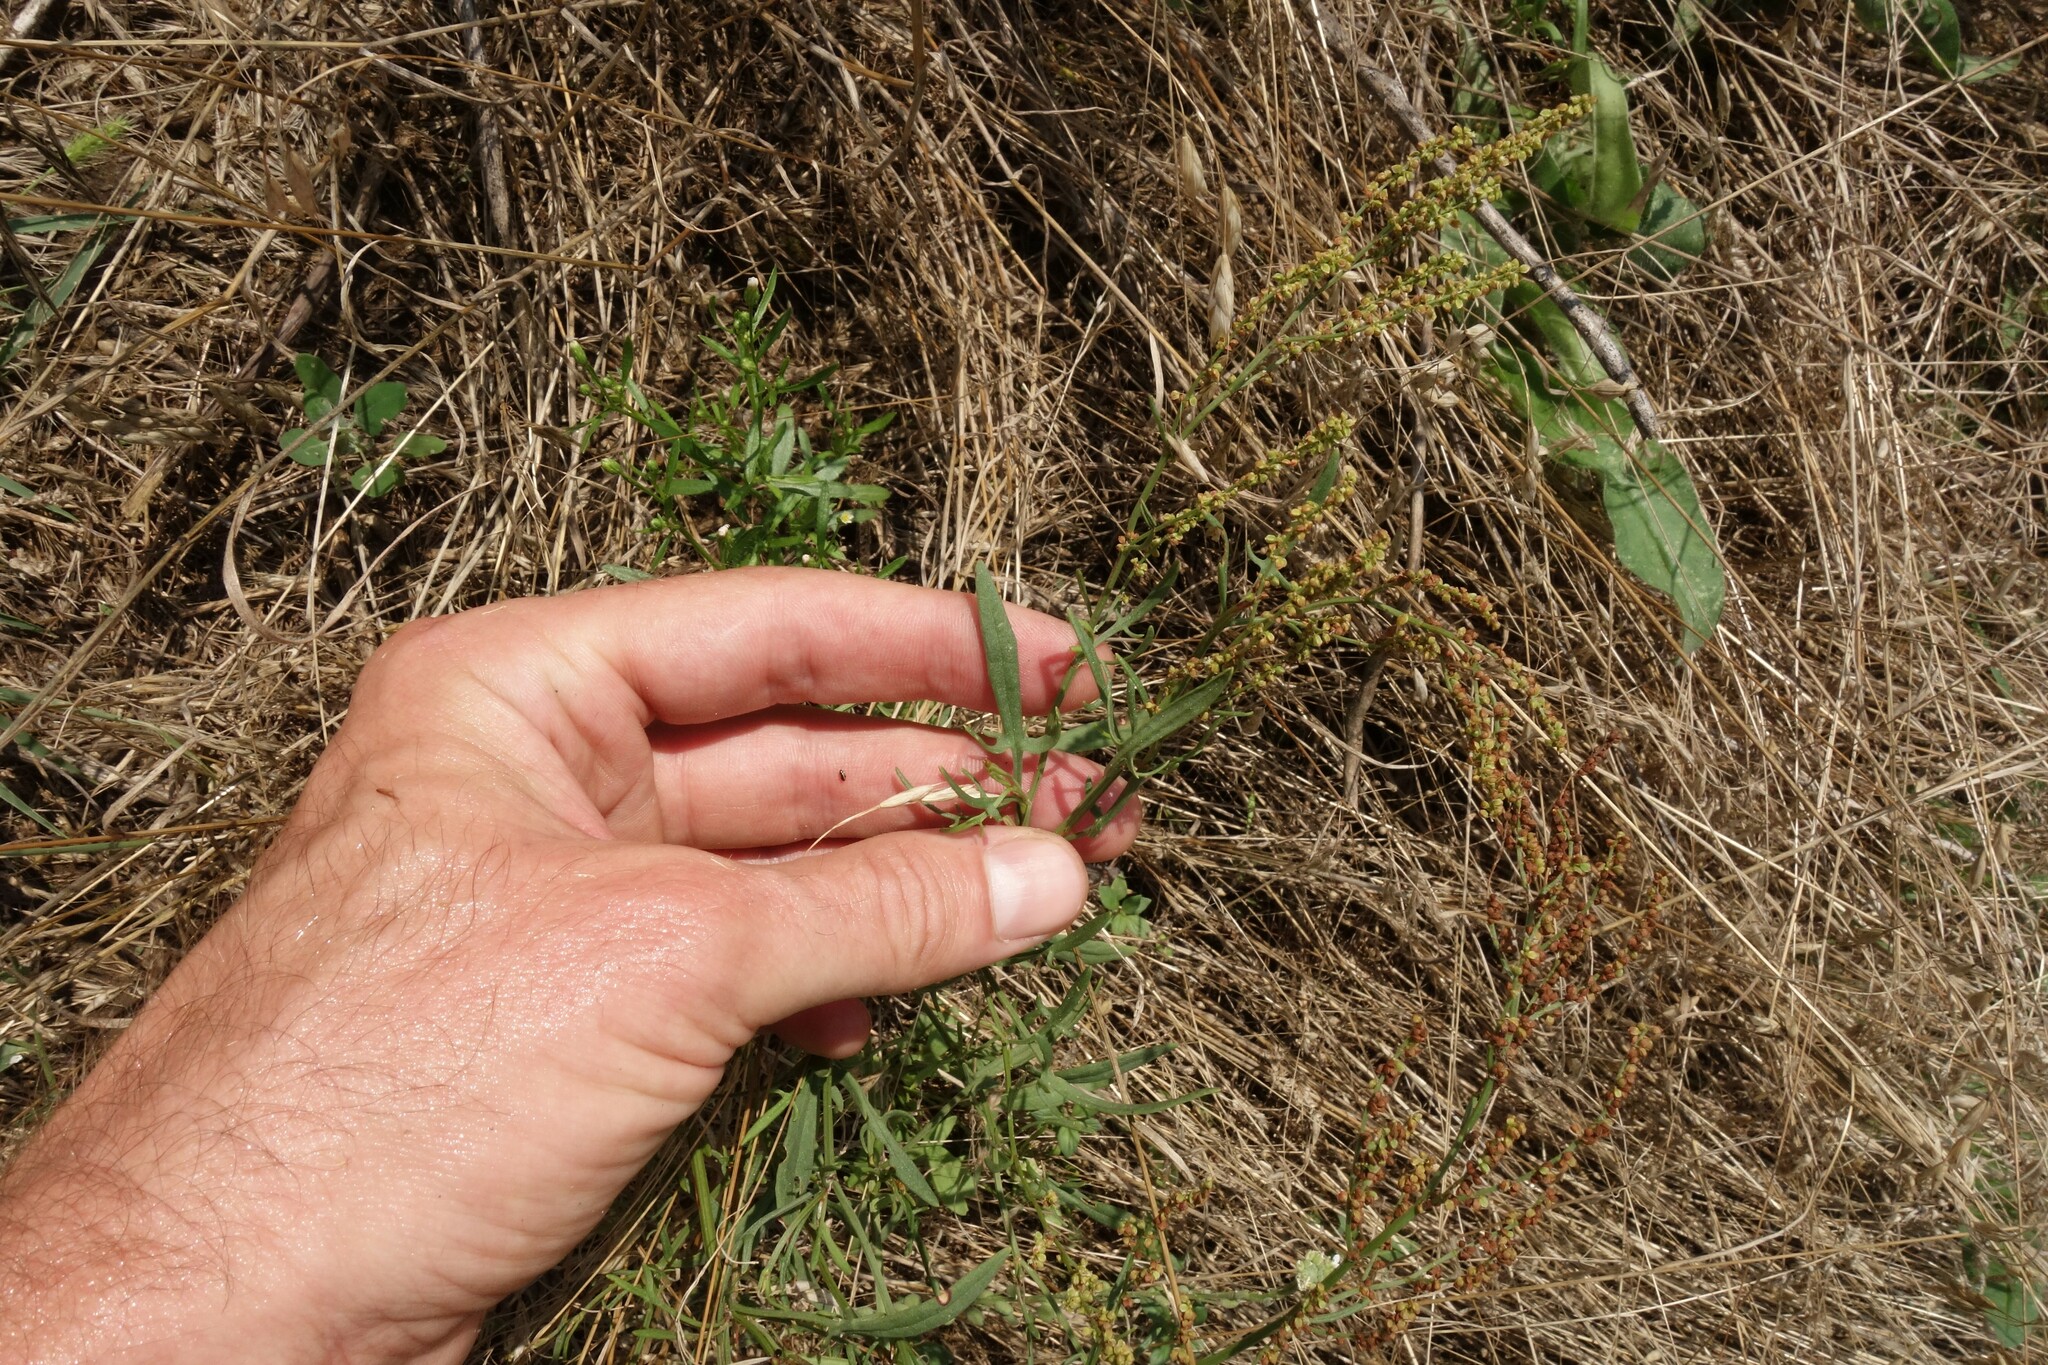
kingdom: Plantae
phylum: Tracheophyta
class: Magnoliopsida
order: Caryophyllales
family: Polygonaceae
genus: Rumex
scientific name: Rumex acetosella
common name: Common sheep sorrel
